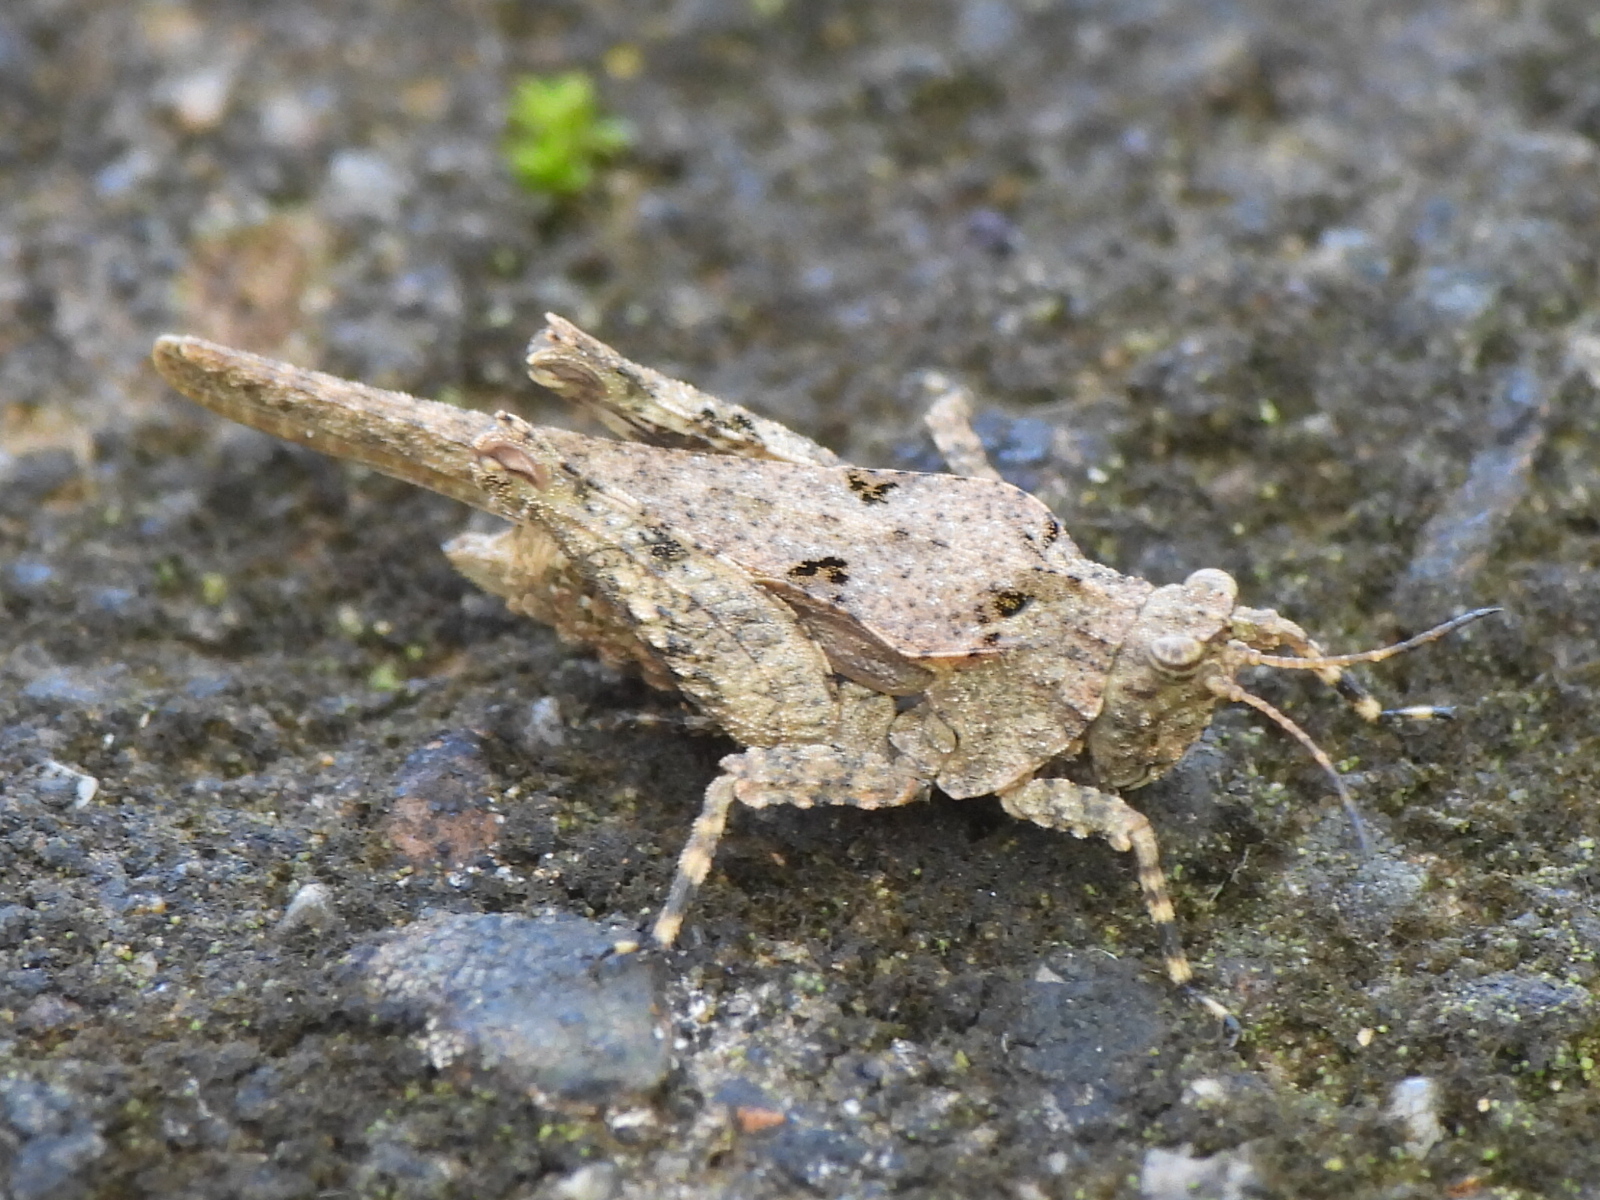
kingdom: Animalia
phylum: Arthropoda
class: Insecta
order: Orthoptera
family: Tetrigidae
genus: Tetrix
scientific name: Tetrix arenosa
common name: Ornate pygmy grasshopper
